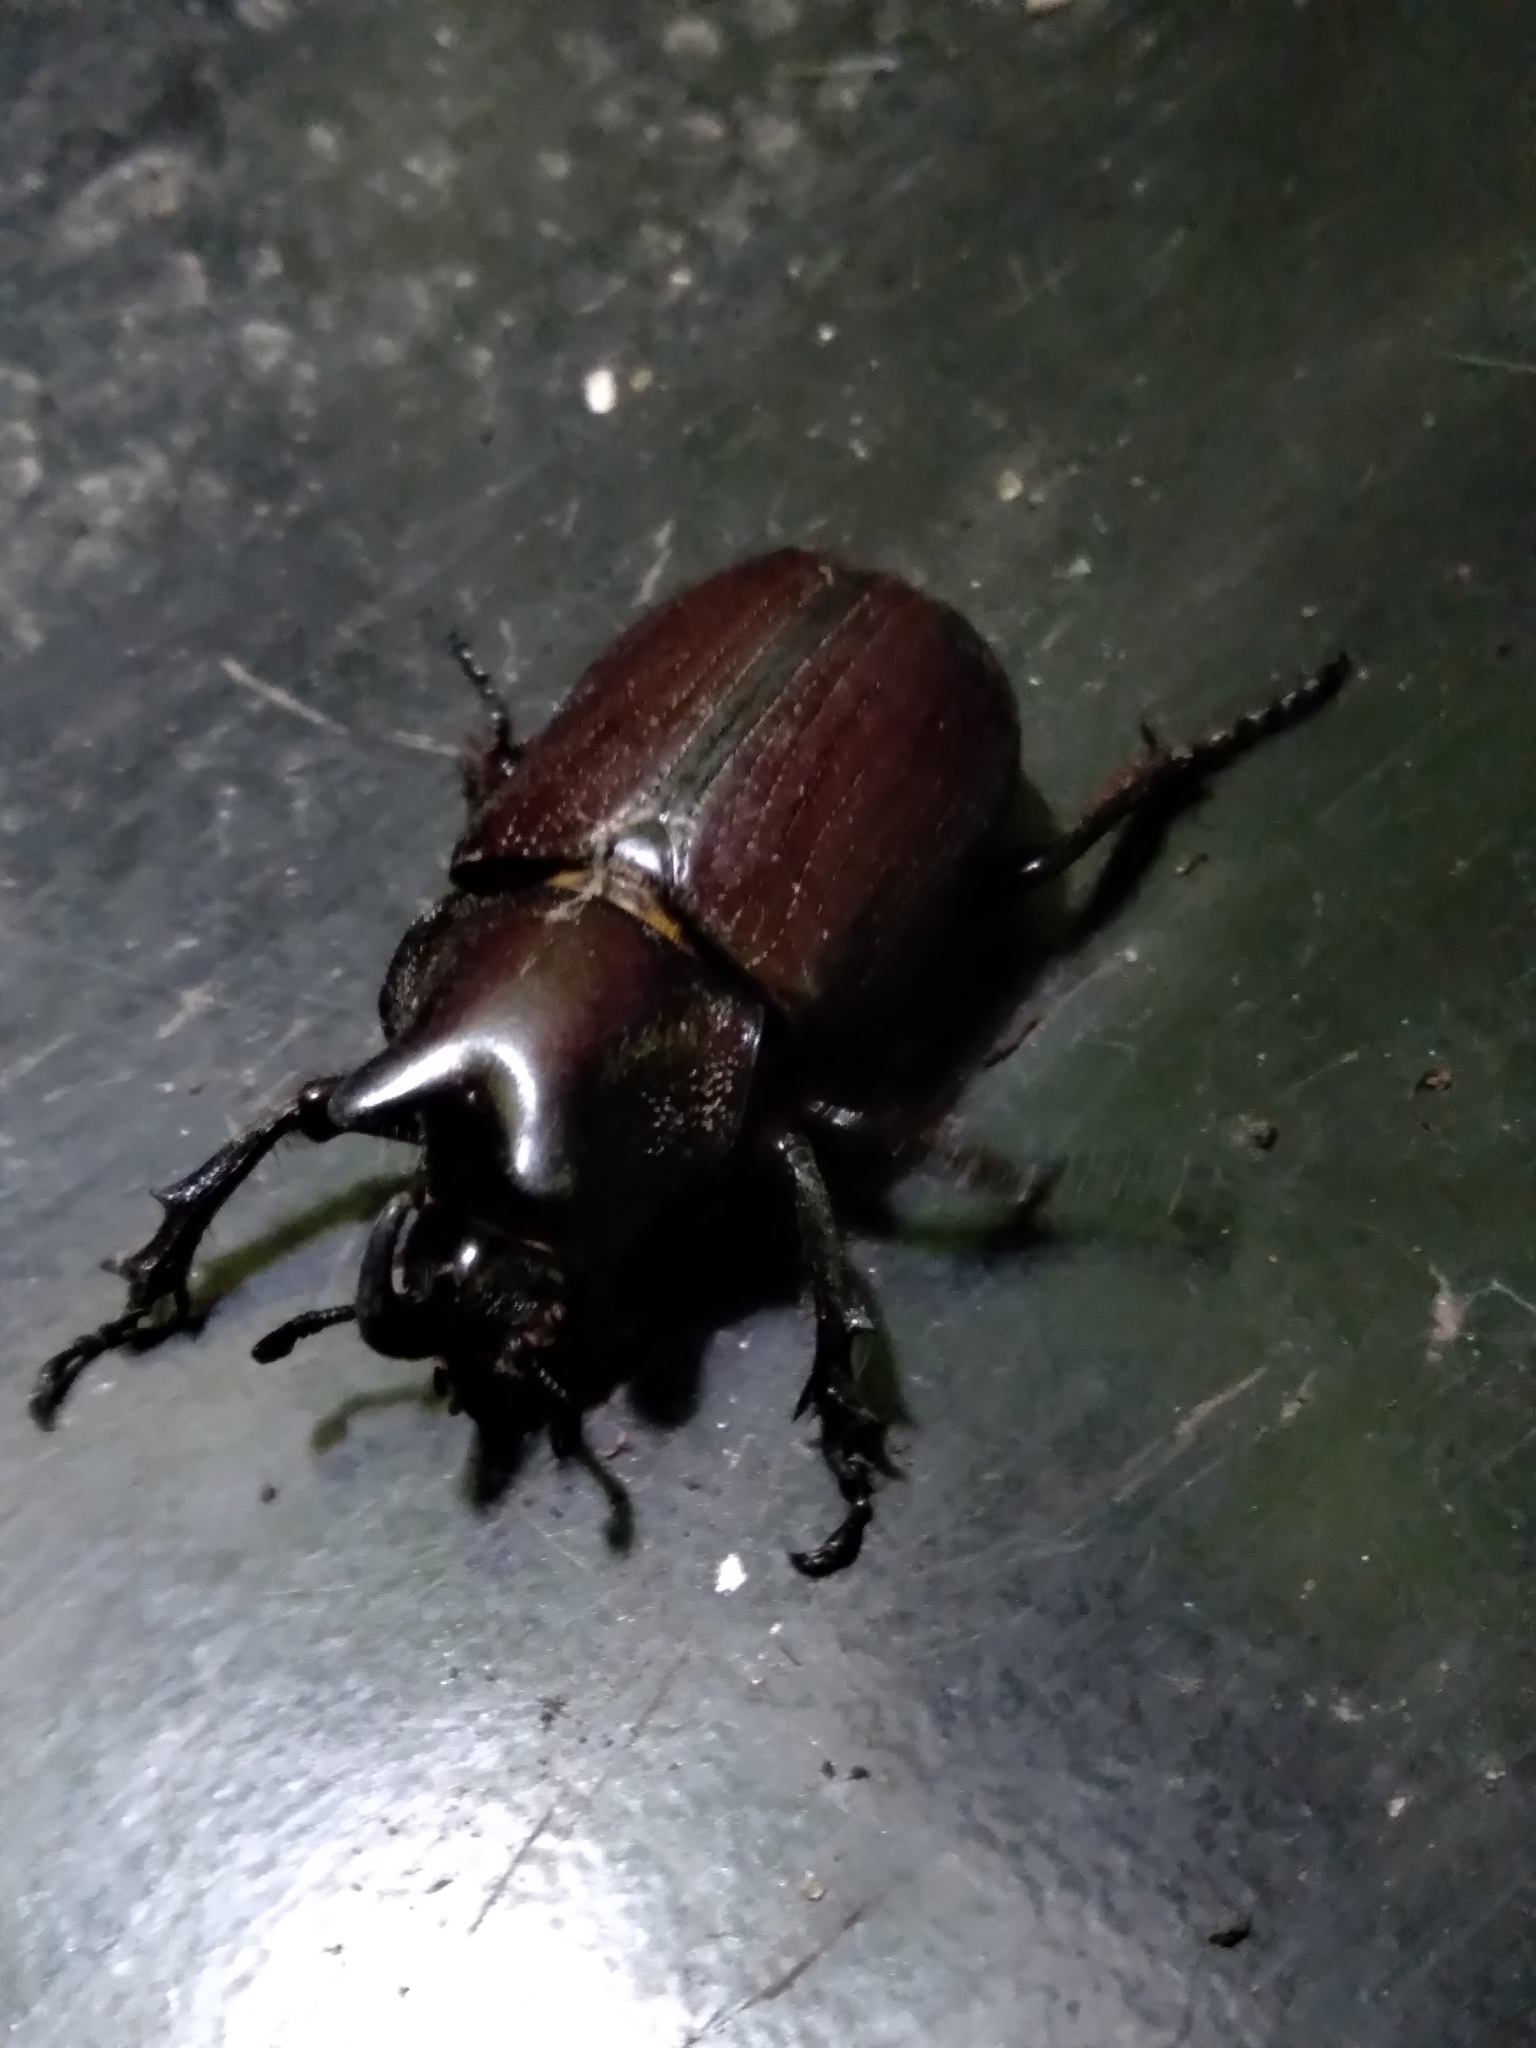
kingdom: Animalia
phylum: Arthropoda
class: Insecta
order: Coleoptera
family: Scarabaeidae
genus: Coelosis
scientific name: Coelosis biloba
